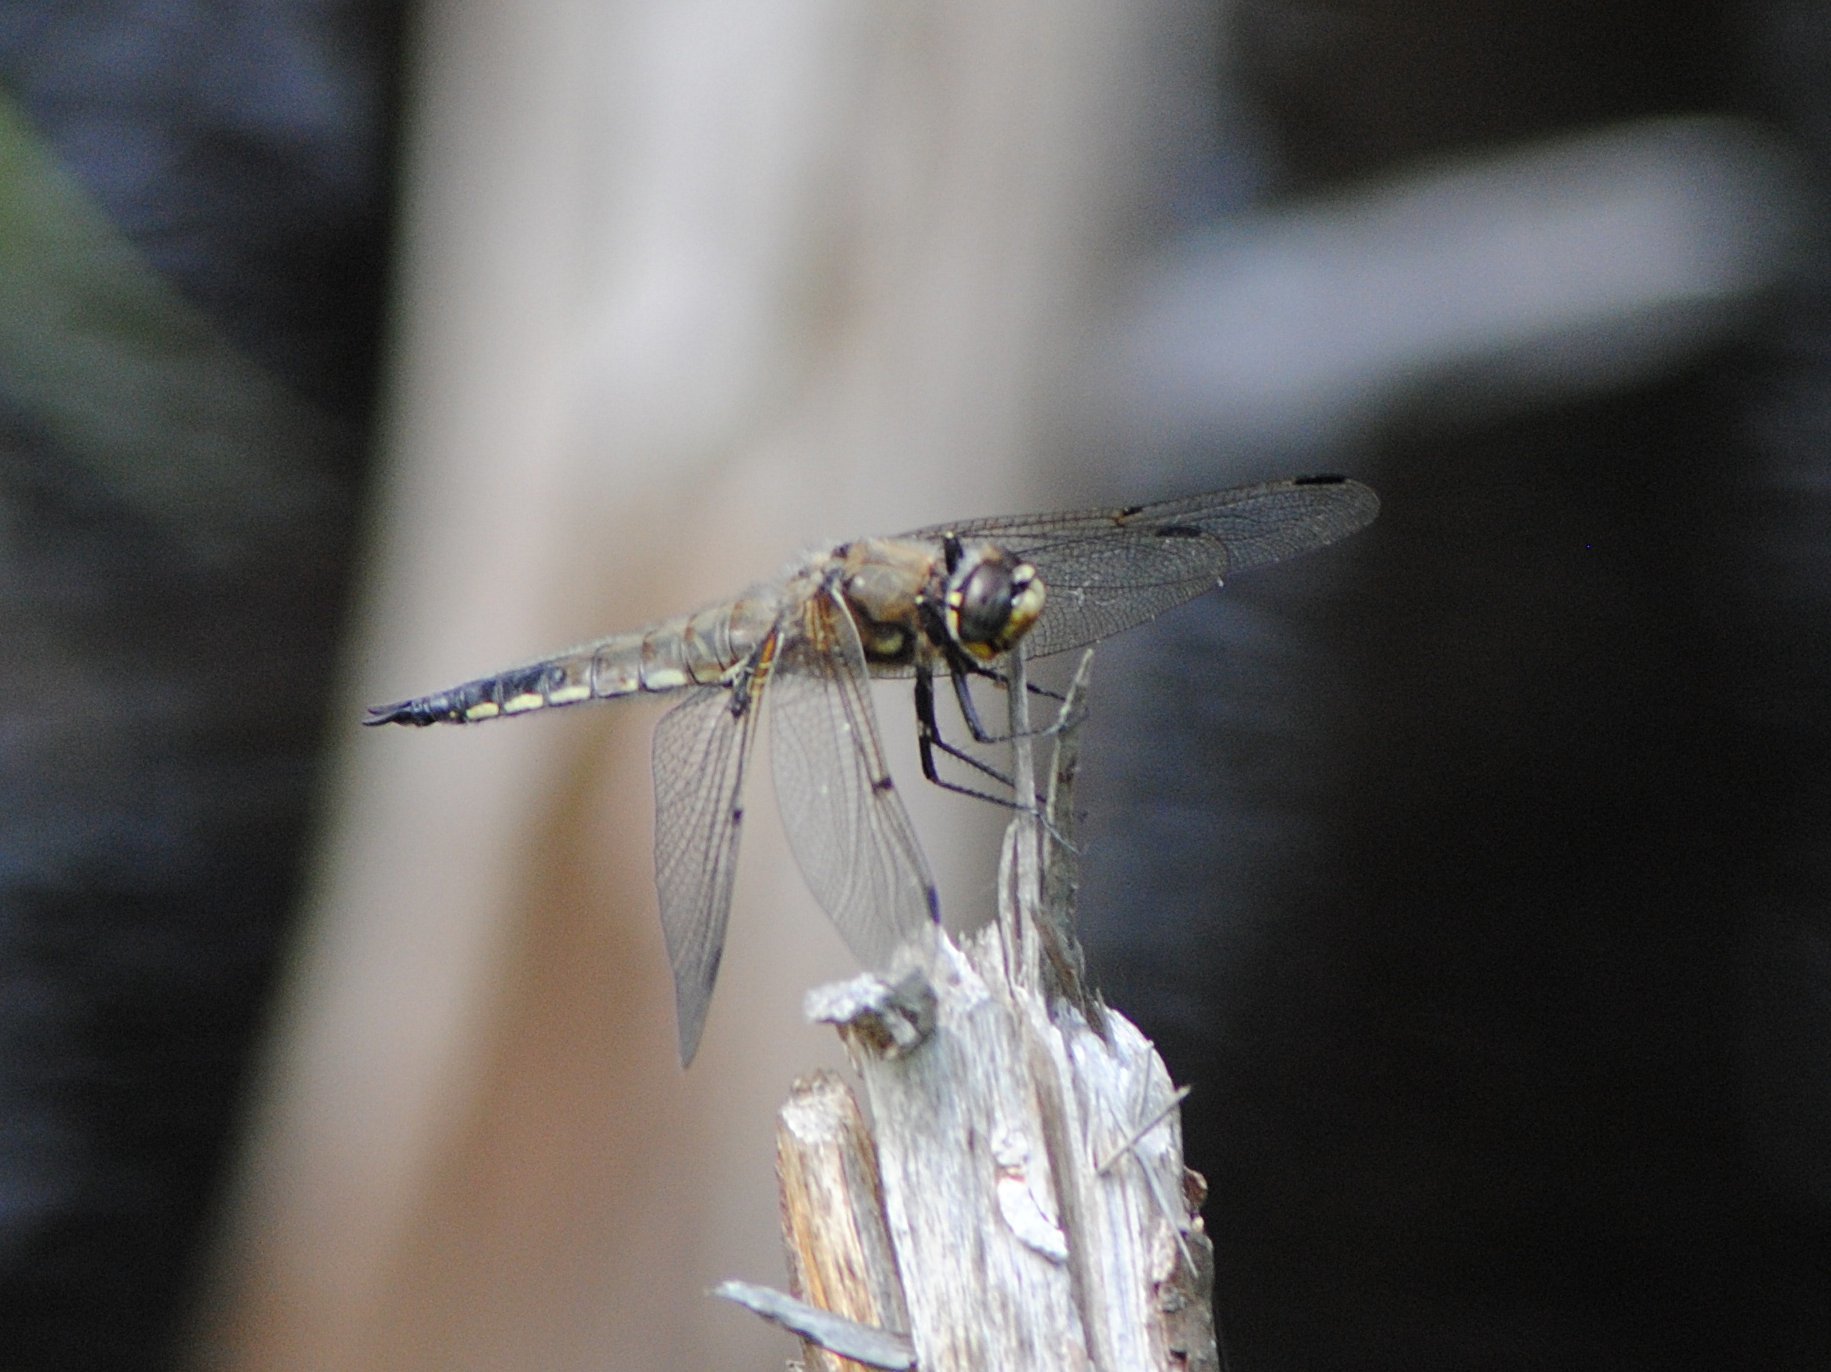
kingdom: Animalia
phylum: Arthropoda
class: Insecta
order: Odonata
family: Libellulidae
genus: Libellula
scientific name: Libellula quadrimaculata
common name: Four-spotted chaser
